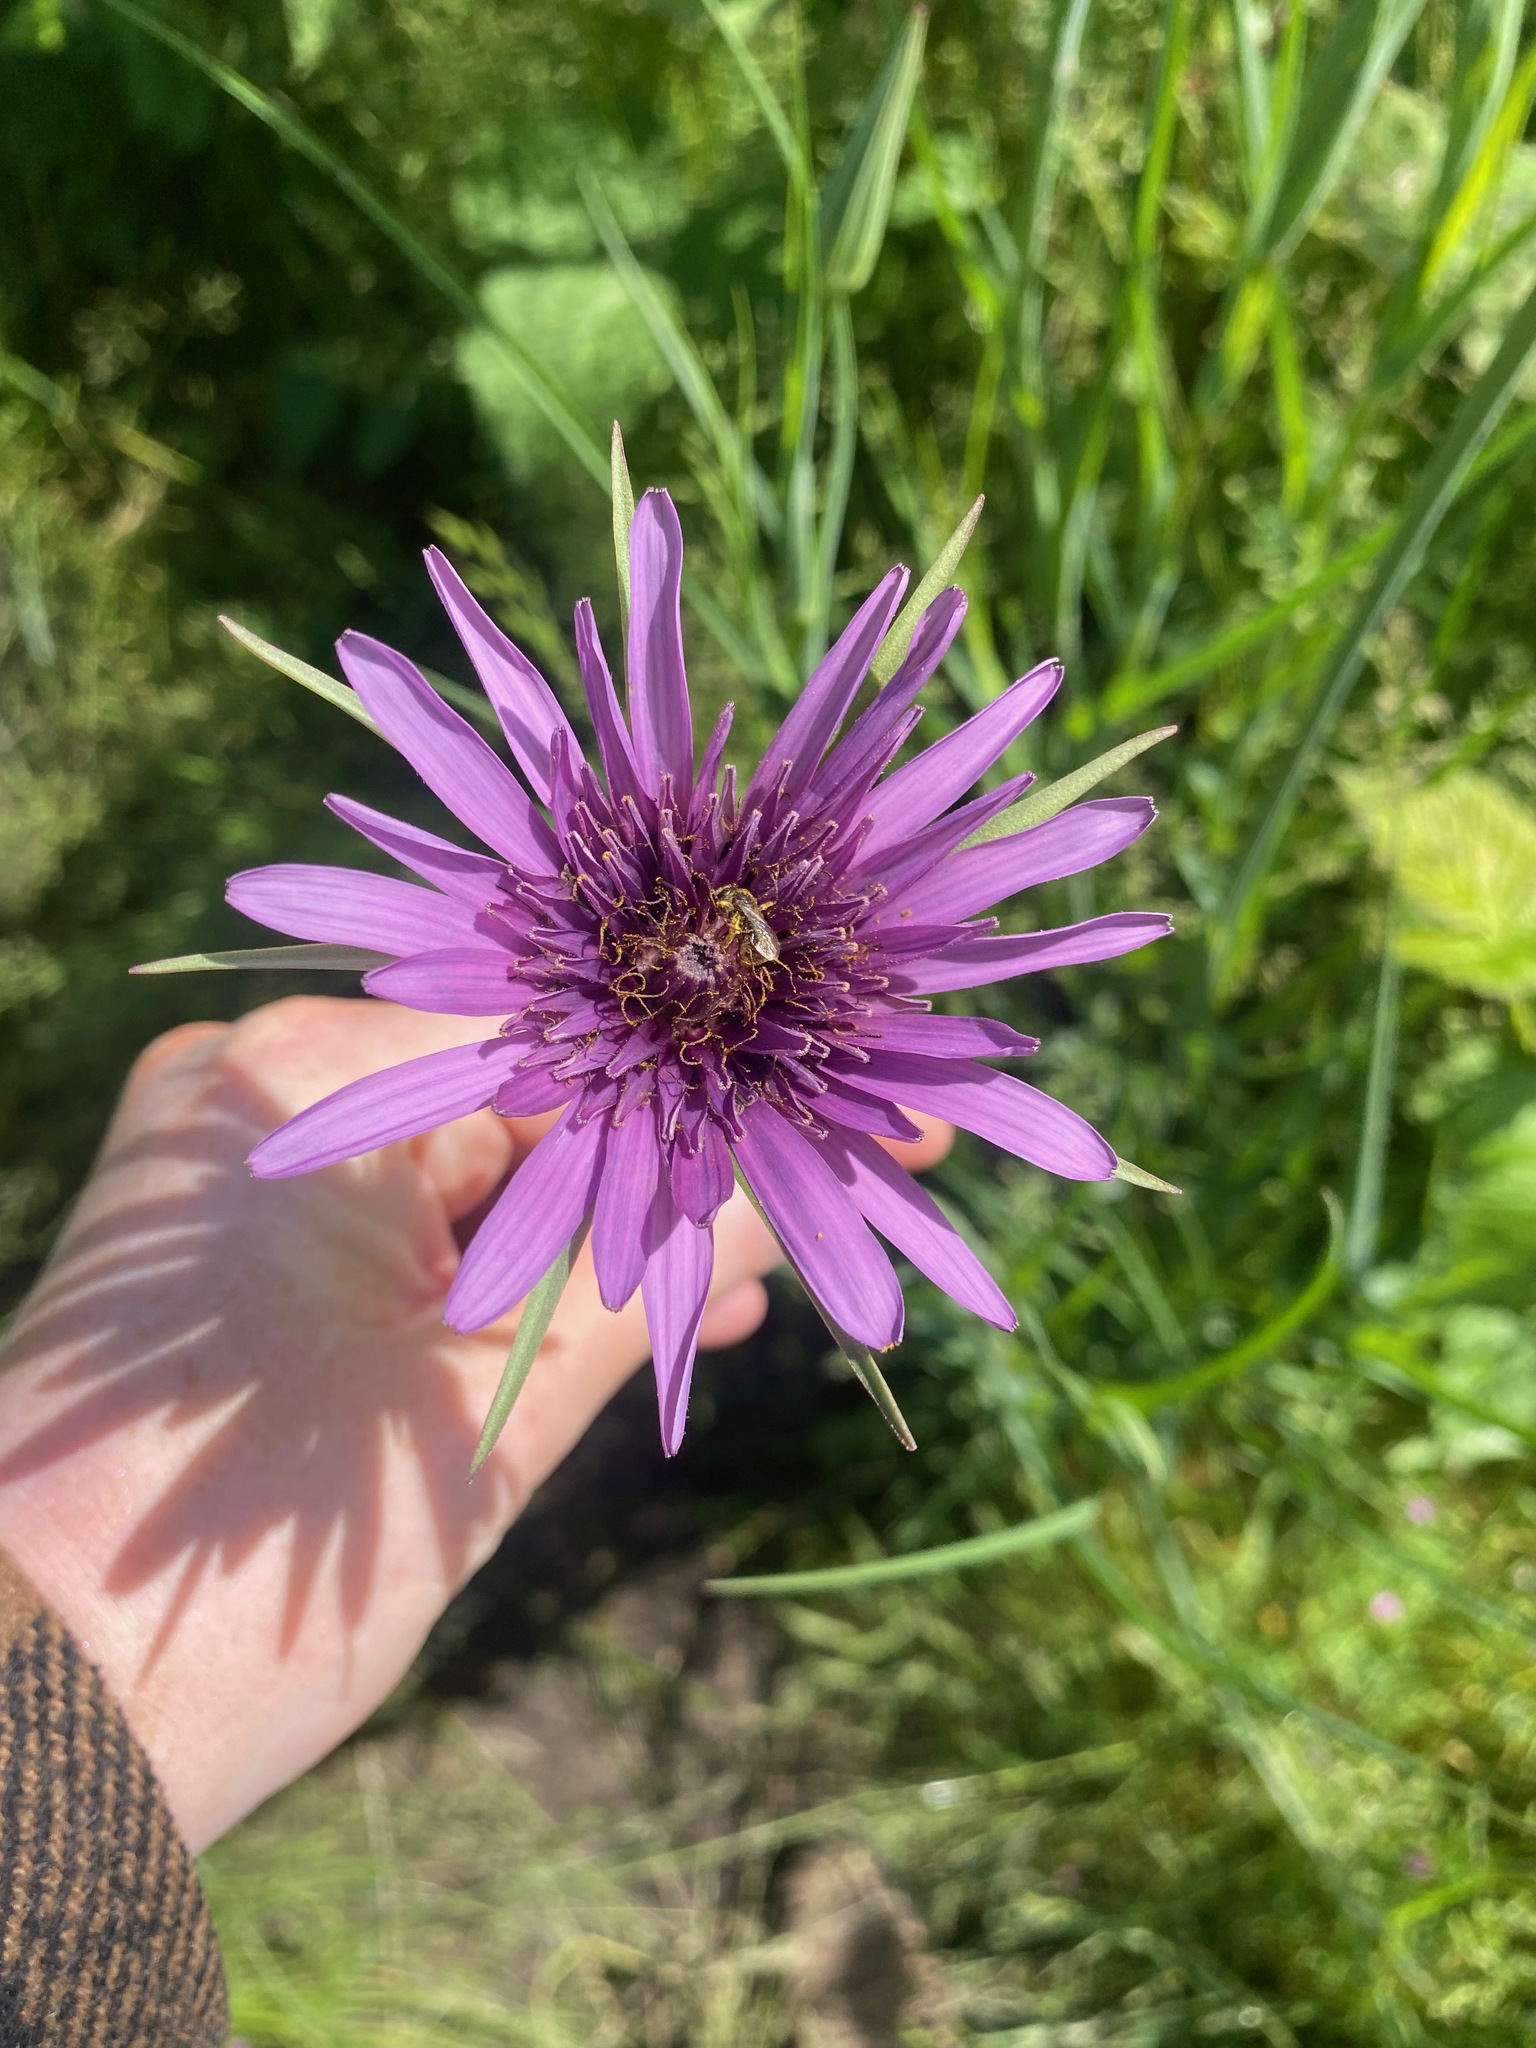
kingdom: Plantae
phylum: Tracheophyta
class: Magnoliopsida
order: Asterales
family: Asteraceae
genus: Tragopogon
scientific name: Tragopogon porrifolius
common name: Salsify
